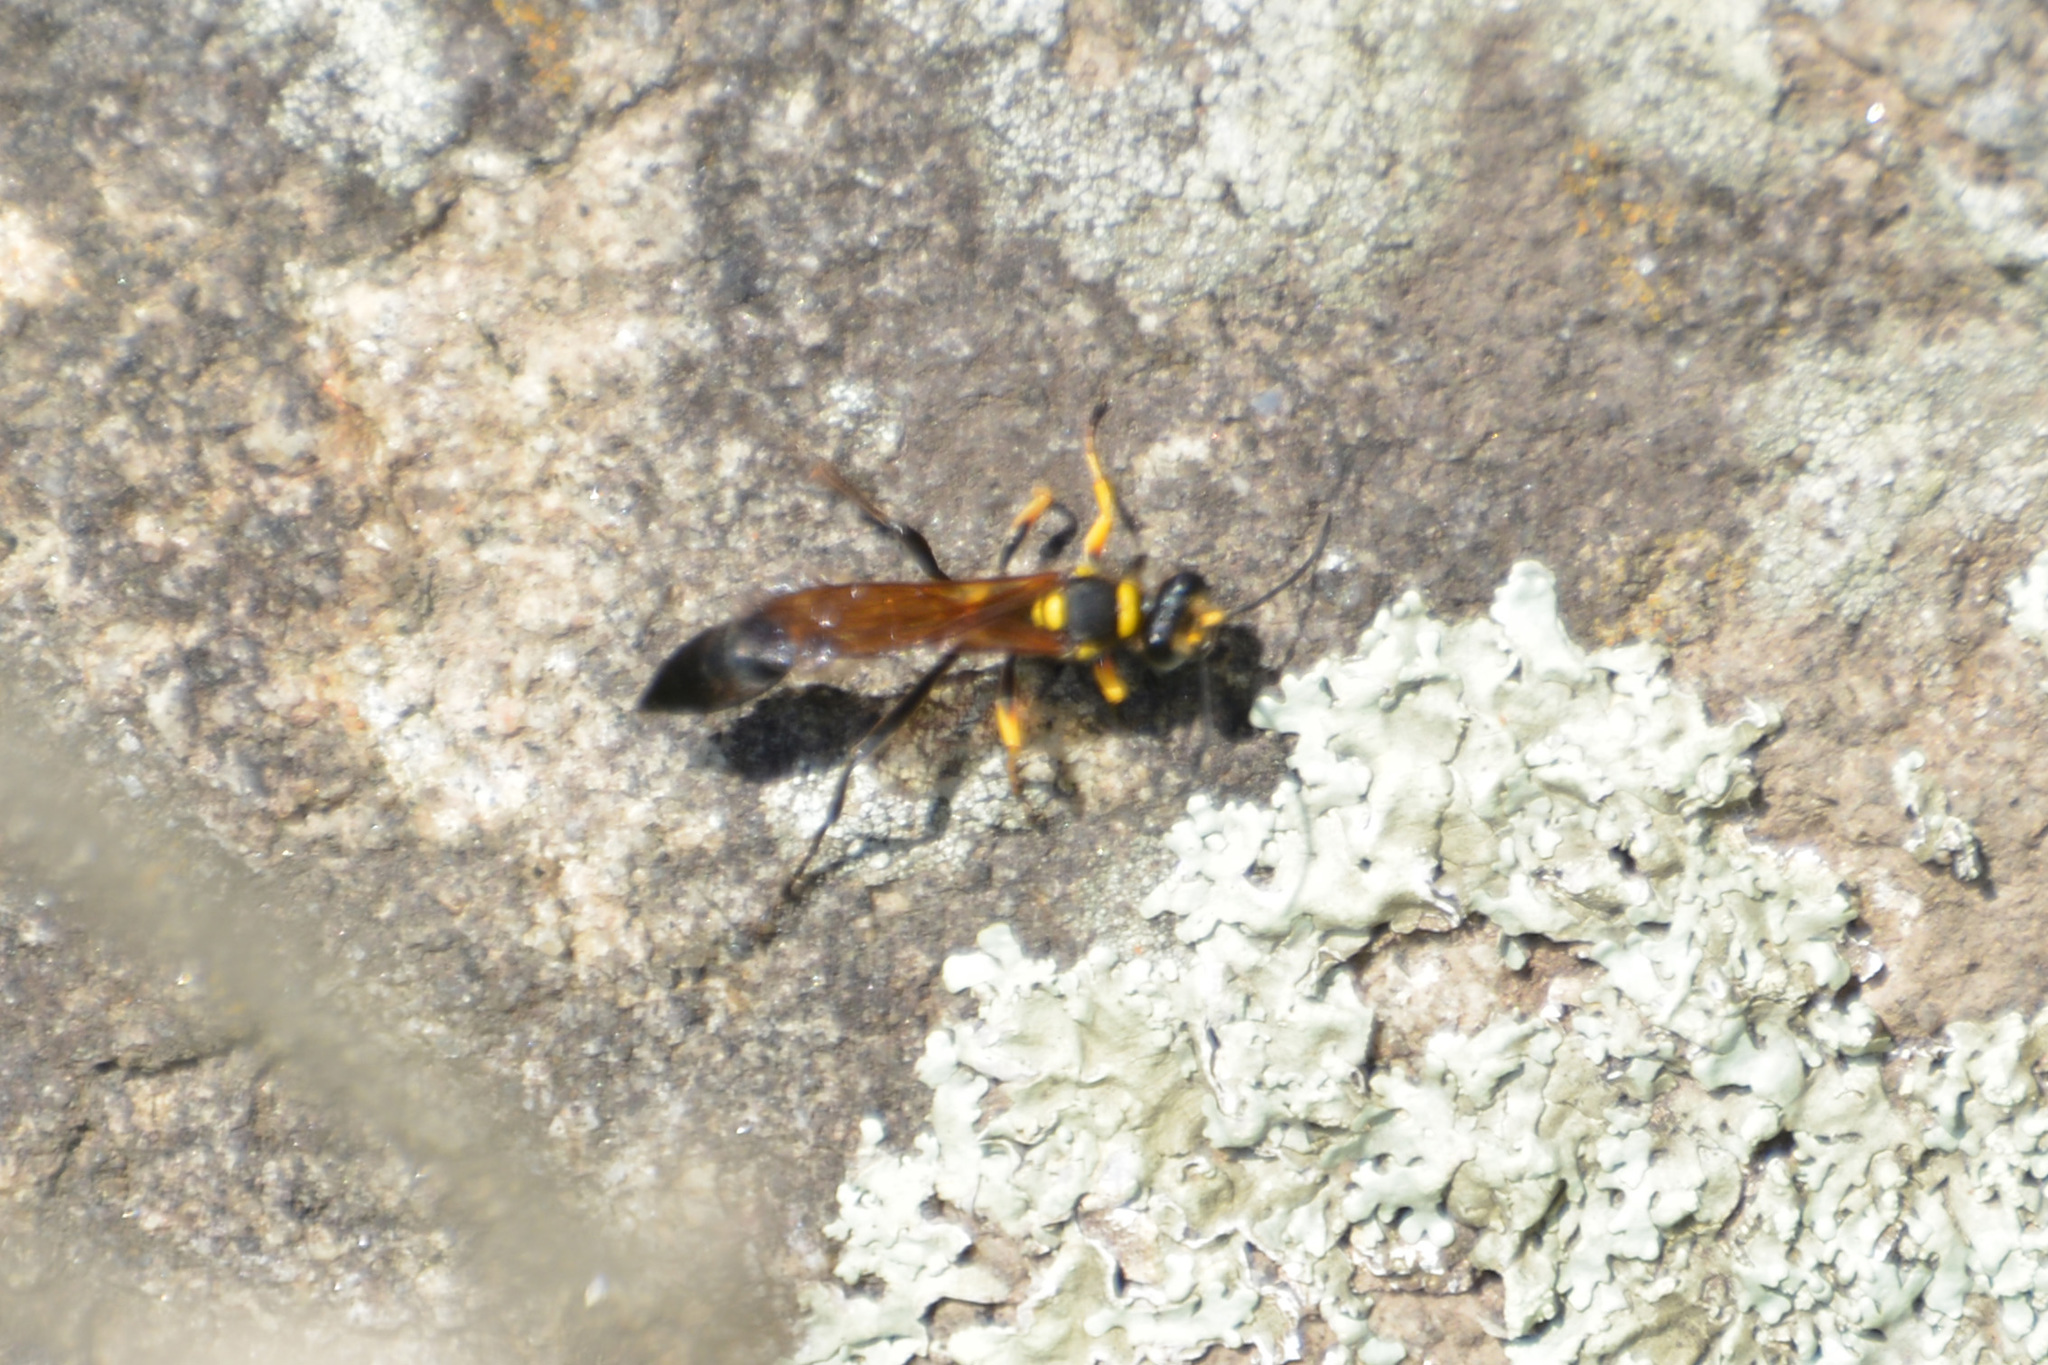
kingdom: Animalia
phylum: Arthropoda
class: Insecta
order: Hymenoptera
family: Sphecidae
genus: Sceliphron
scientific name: Sceliphron asiaticum
